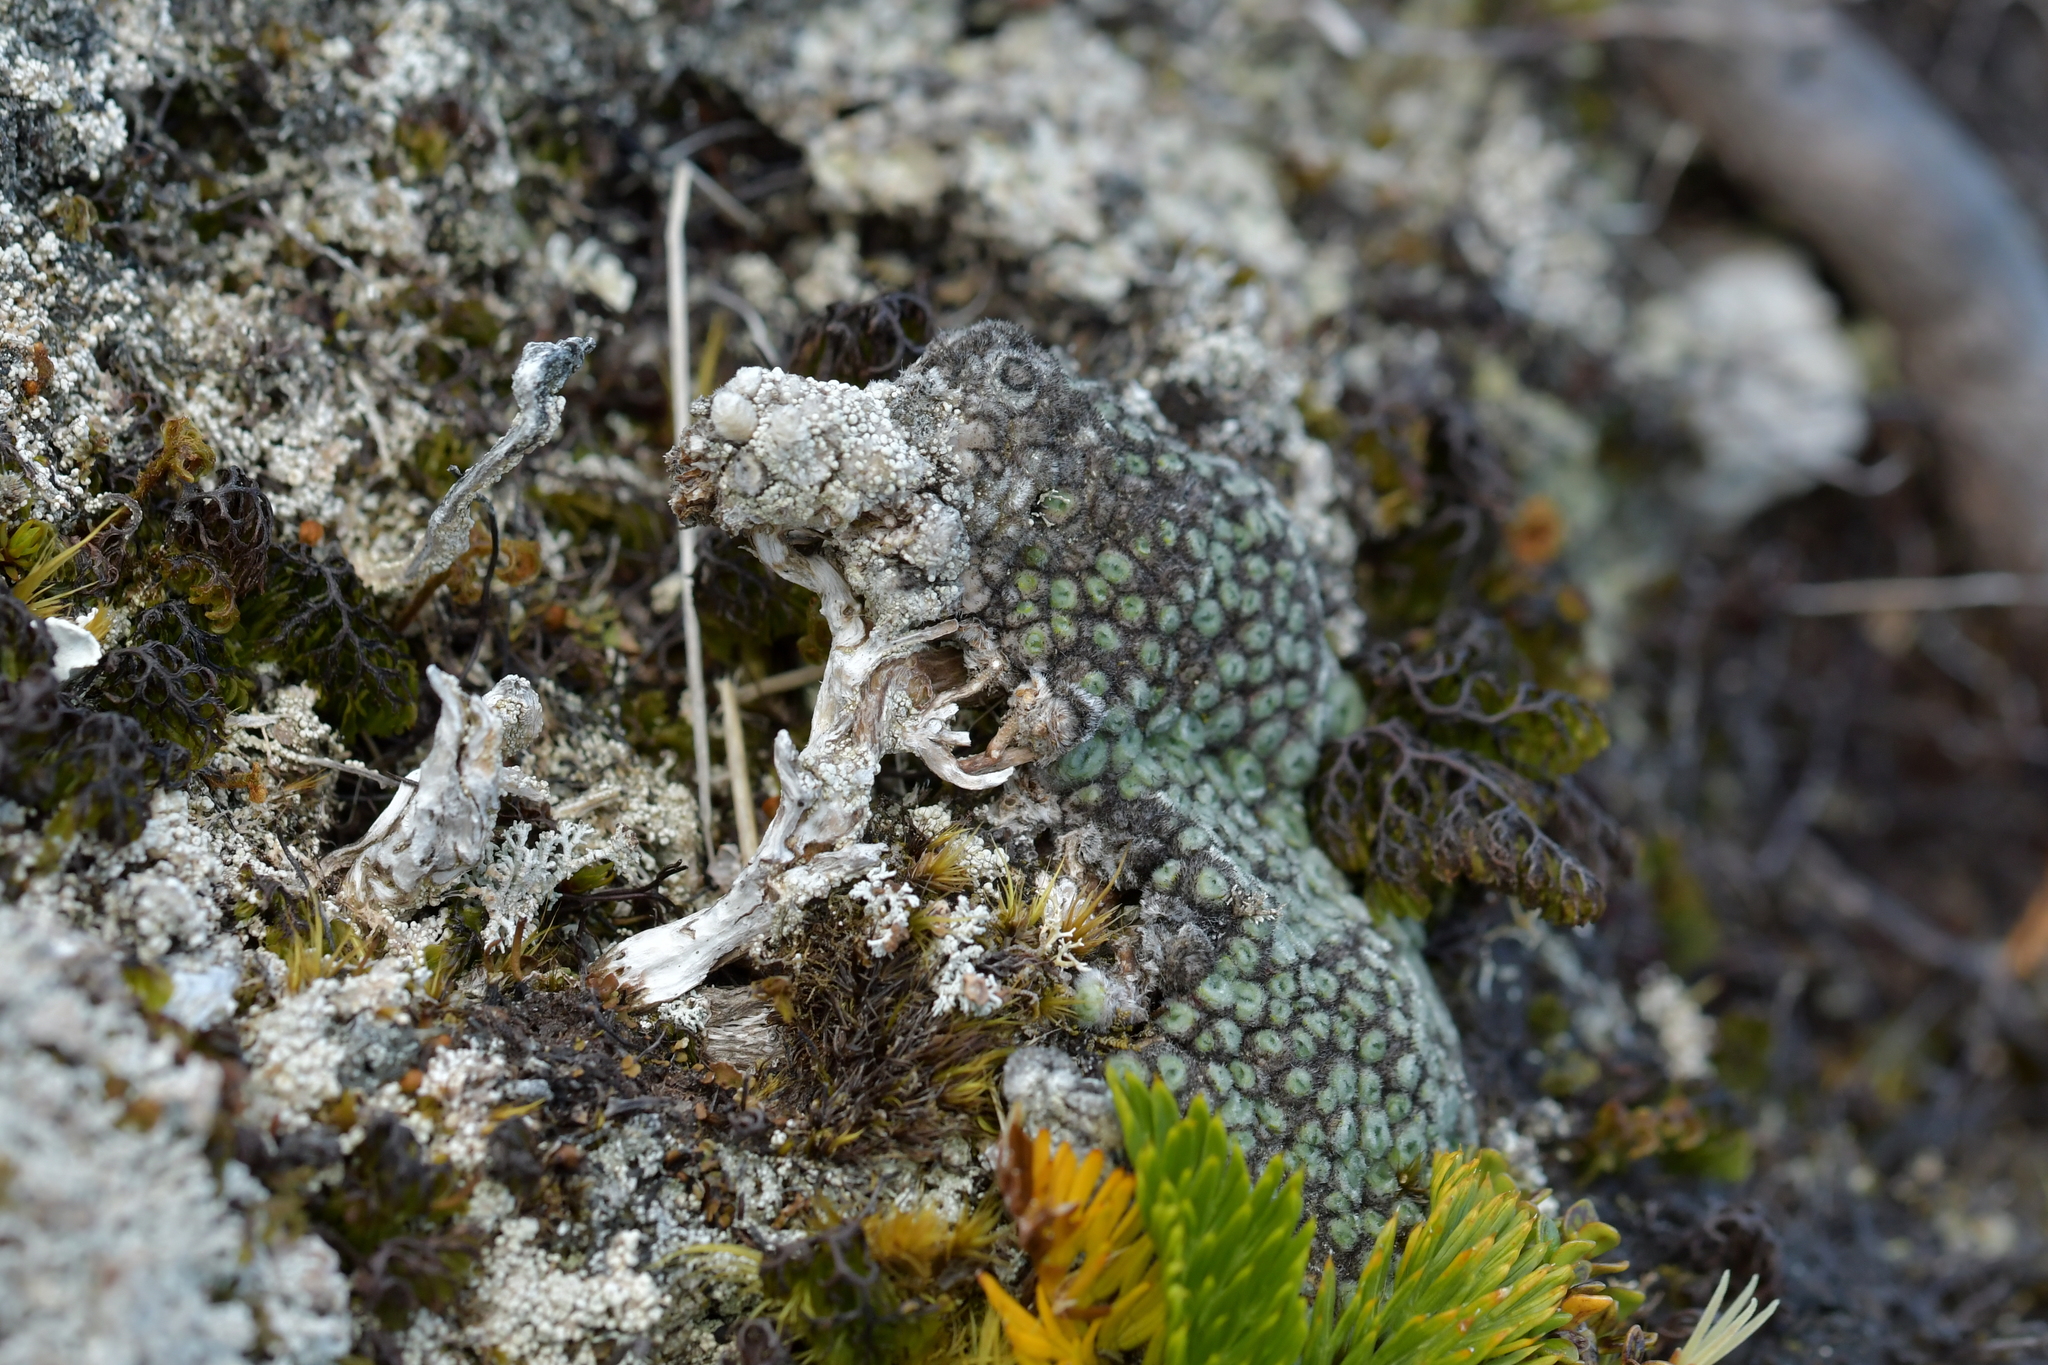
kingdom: Plantae
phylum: Tracheophyta
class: Magnoliopsida
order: Asterales
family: Asteraceae
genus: Raoulia
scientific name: Raoulia rubra
